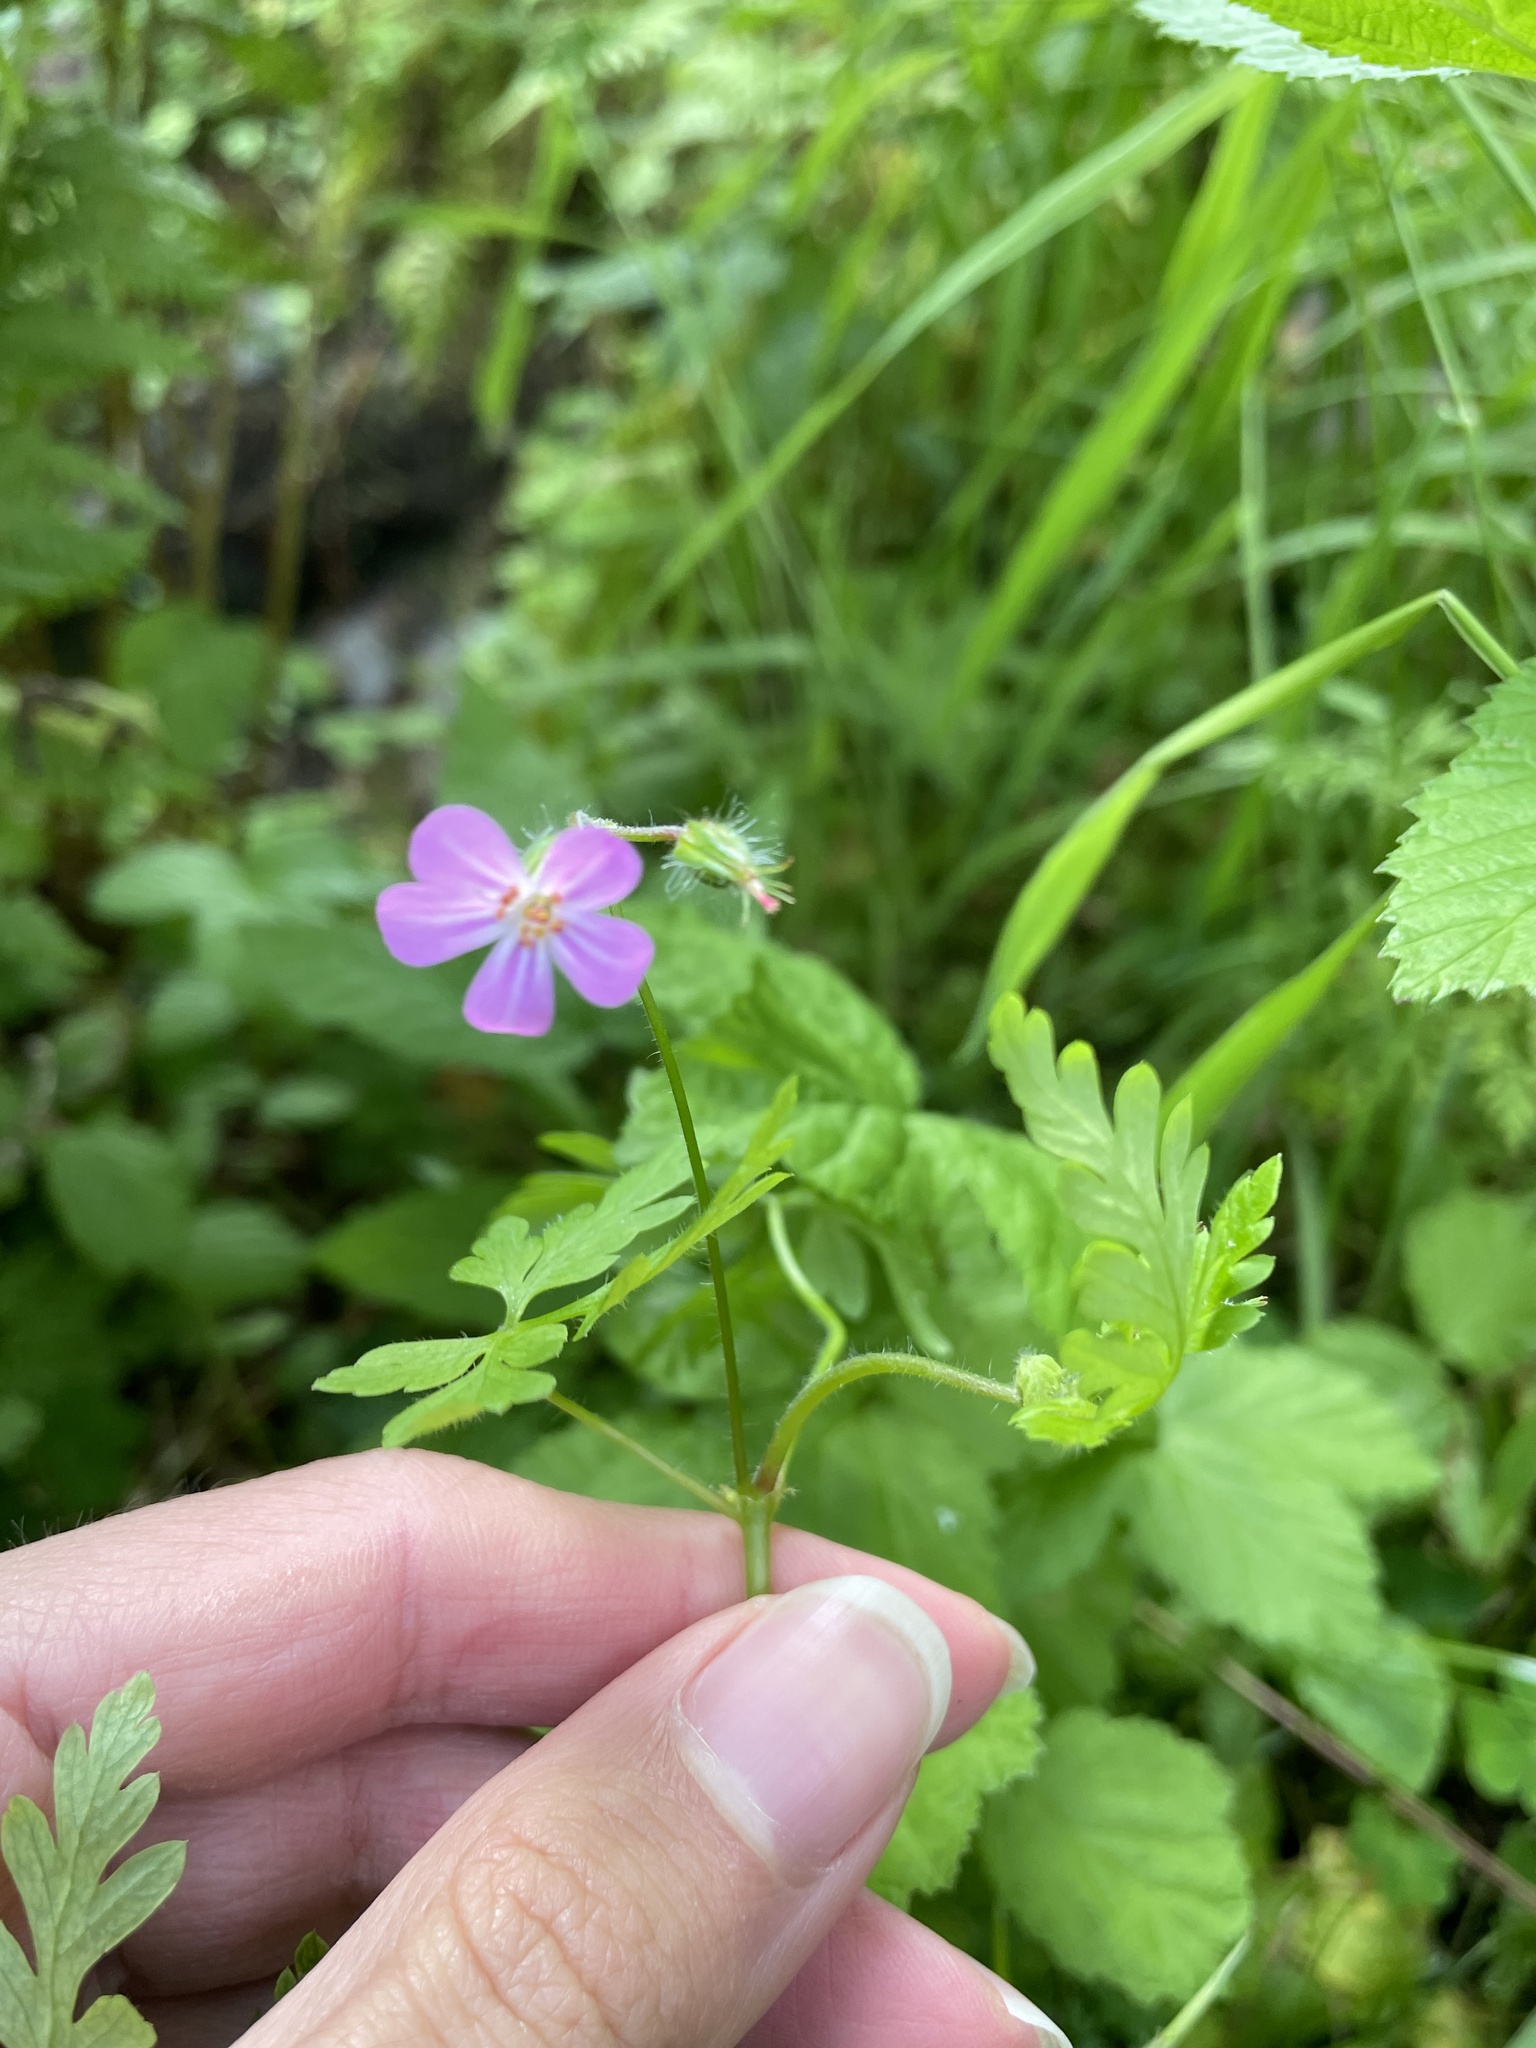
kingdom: Plantae
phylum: Tracheophyta
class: Magnoliopsida
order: Geraniales
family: Geraniaceae
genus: Geranium
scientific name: Geranium robertianum
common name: Herb-robert
